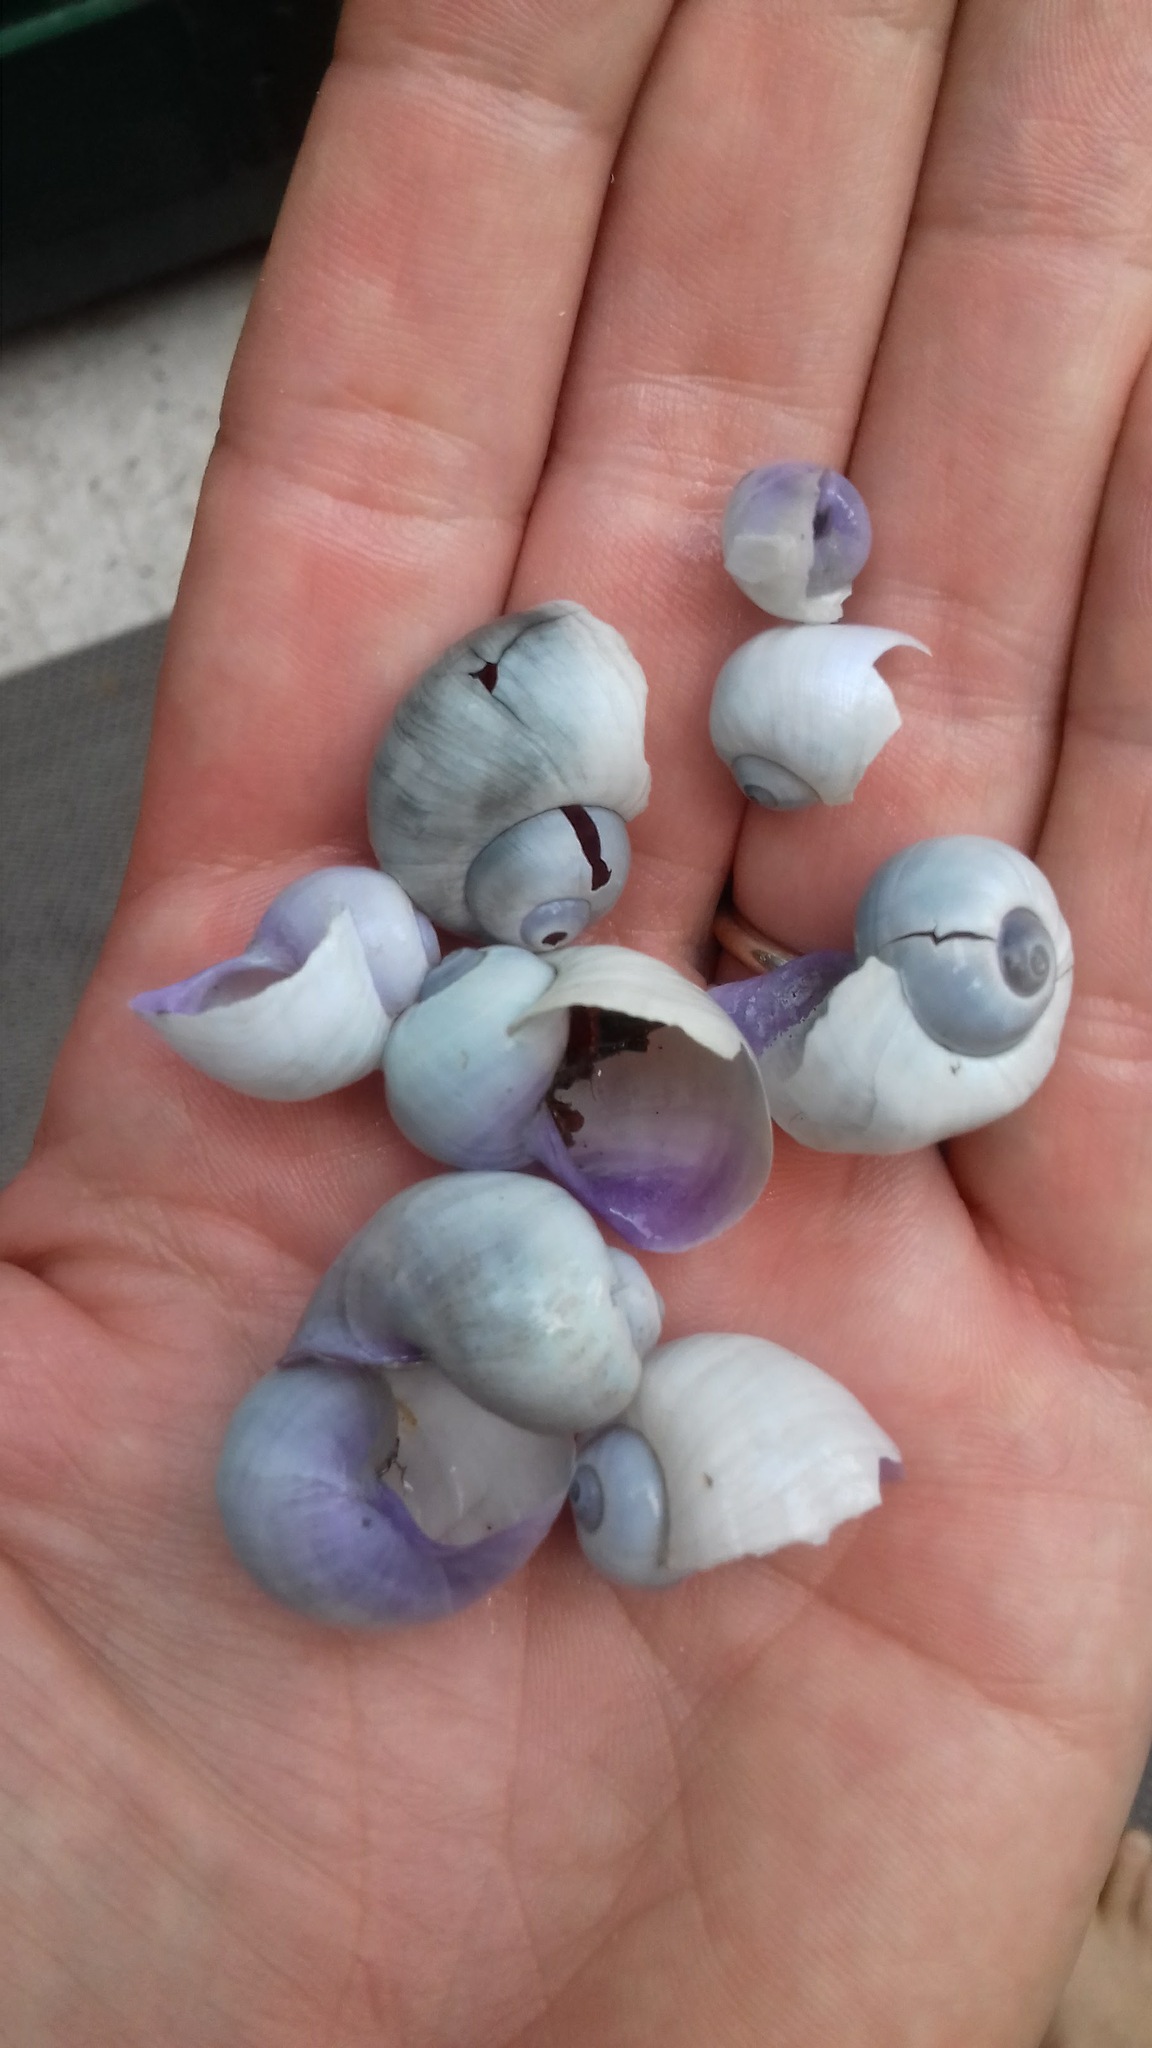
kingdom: Animalia
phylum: Mollusca
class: Gastropoda
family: Epitoniidae
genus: Janthina
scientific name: Janthina pallida
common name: Pale janthina
